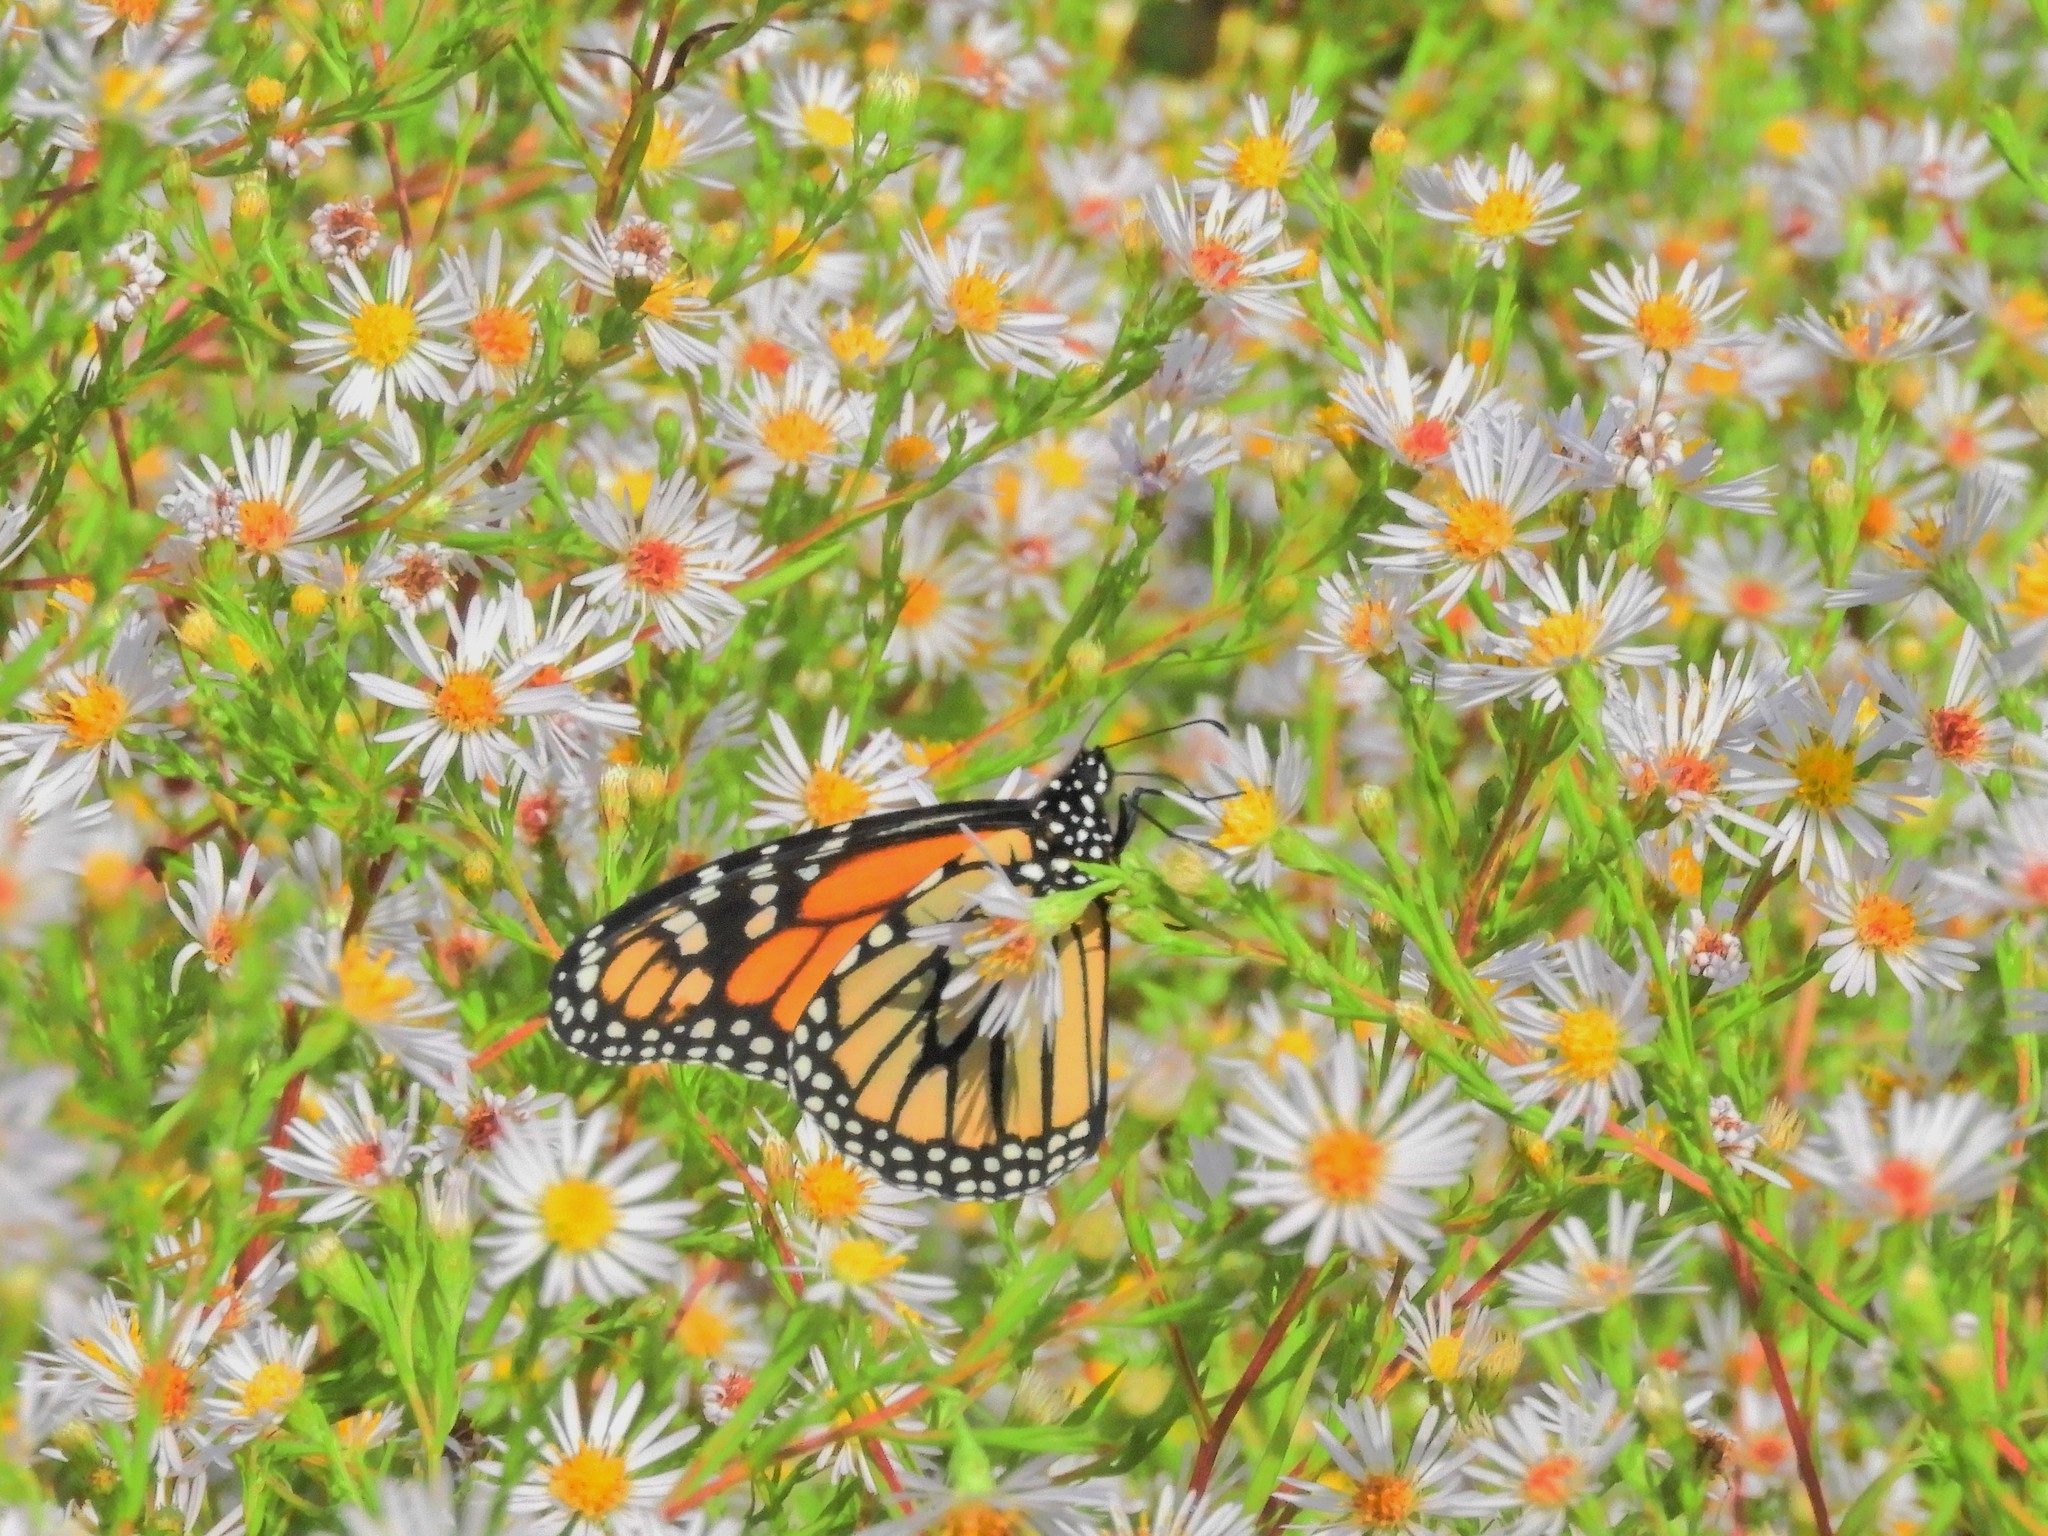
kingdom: Animalia
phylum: Arthropoda
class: Insecta
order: Lepidoptera
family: Nymphalidae
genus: Danaus
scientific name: Danaus plexippus
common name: Monarch
